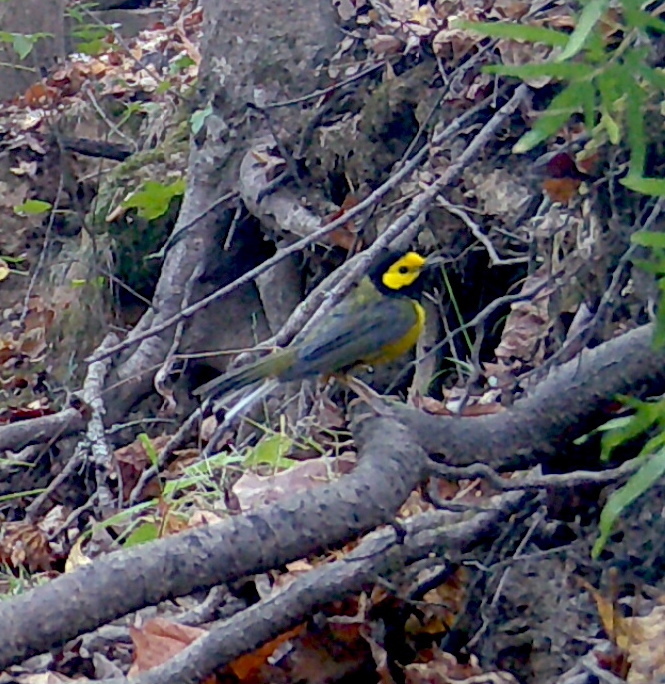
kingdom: Animalia
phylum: Chordata
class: Aves
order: Passeriformes
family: Parulidae
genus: Setophaga
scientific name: Setophaga citrina
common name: Hooded warbler
